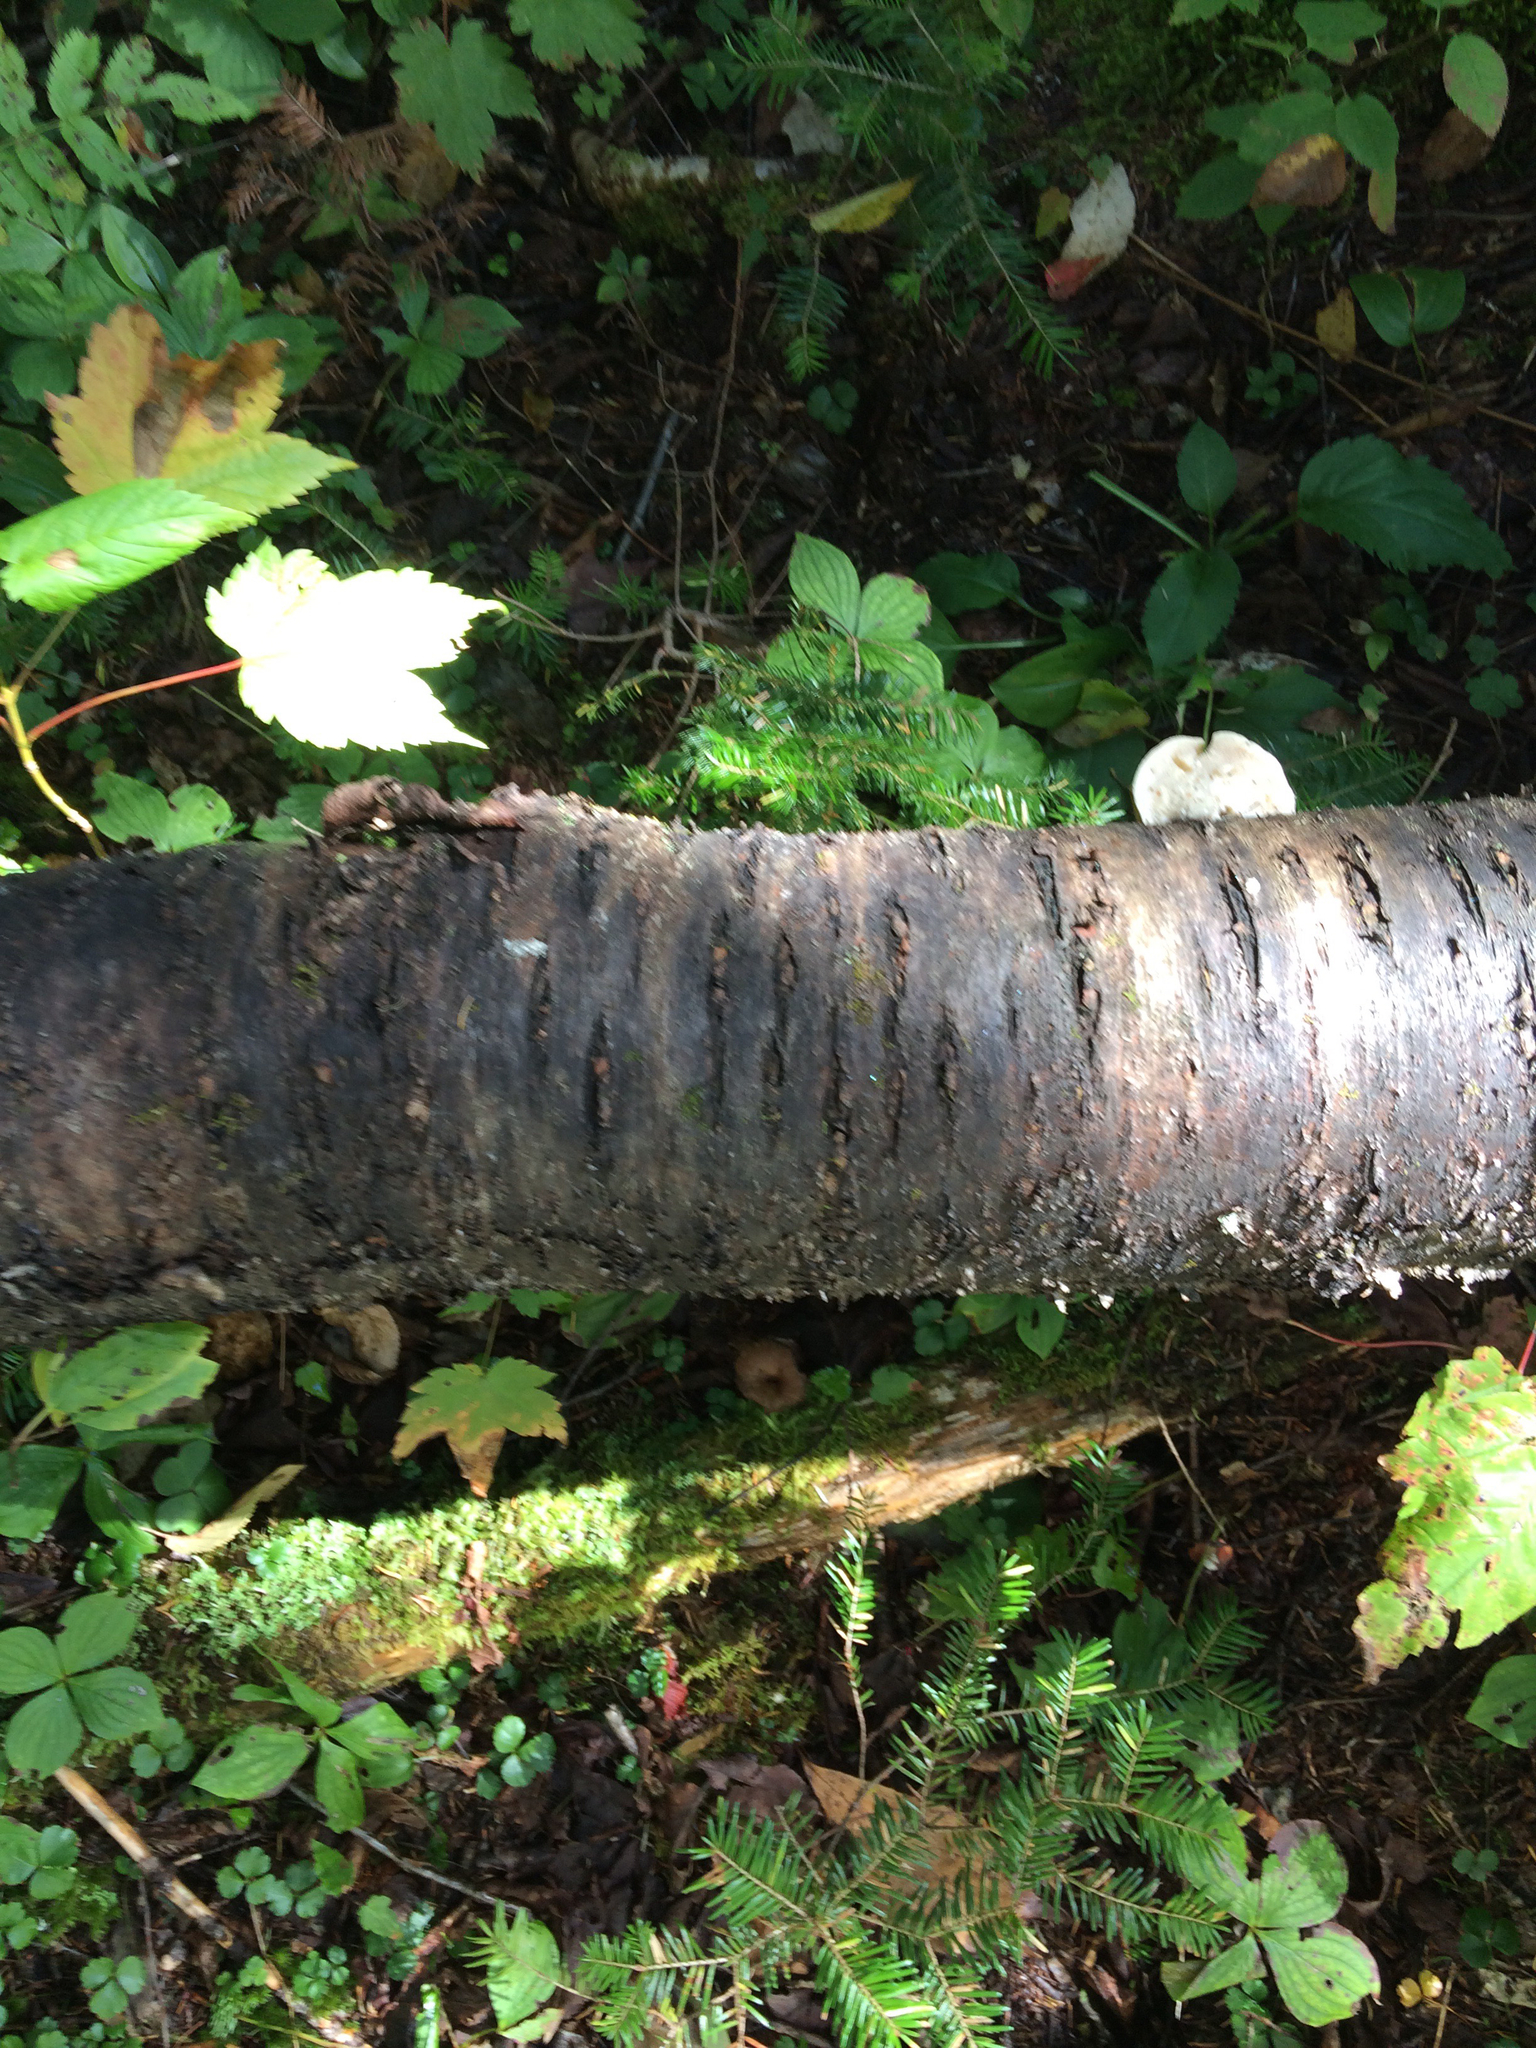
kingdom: Plantae
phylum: Tracheophyta
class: Magnoliopsida
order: Rosales
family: Rosaceae
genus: Prunus
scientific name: Prunus pensylvanica
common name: Pin cherry
